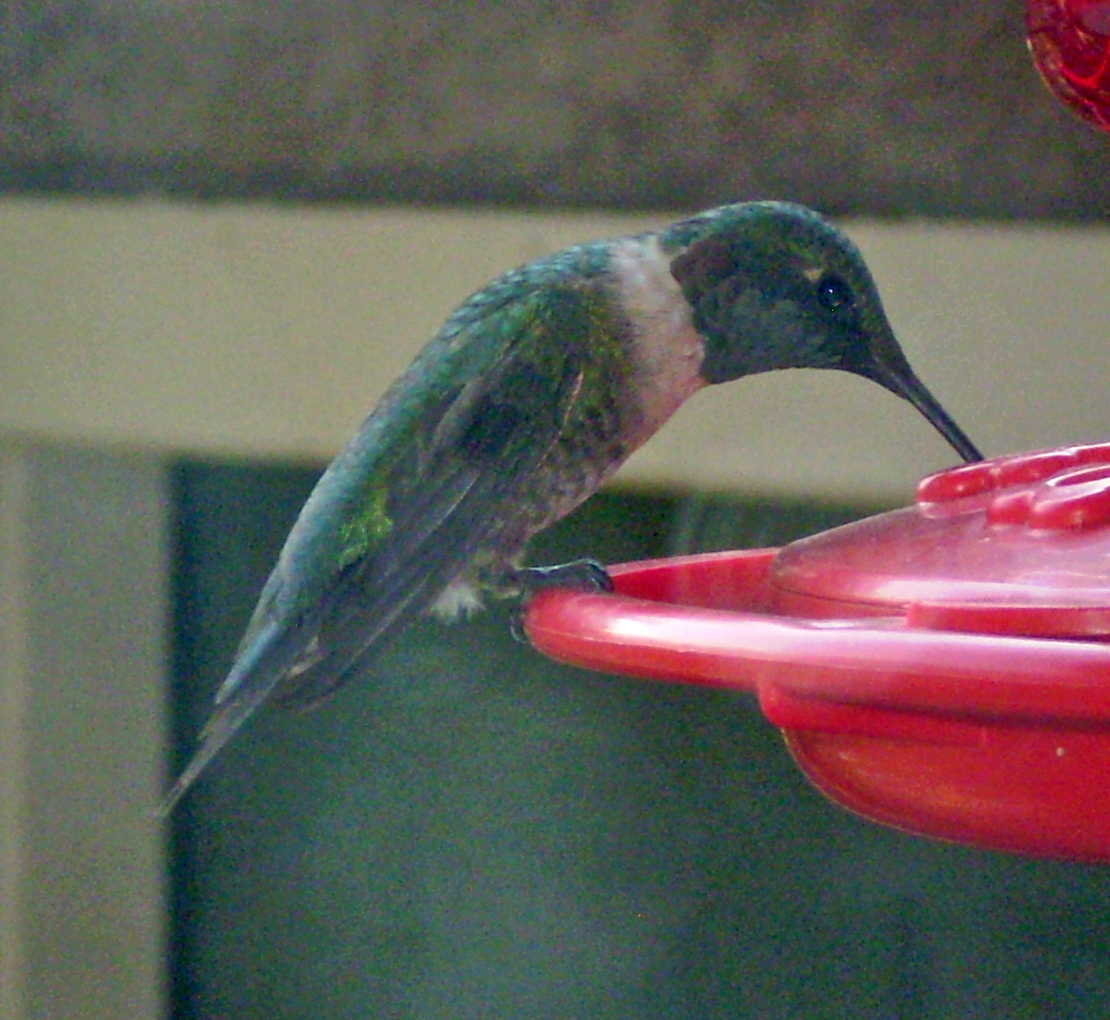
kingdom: Animalia
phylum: Chordata
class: Aves
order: Apodiformes
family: Trochilidae
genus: Archilochus
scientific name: Archilochus colubris
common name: Ruby-throated hummingbird
